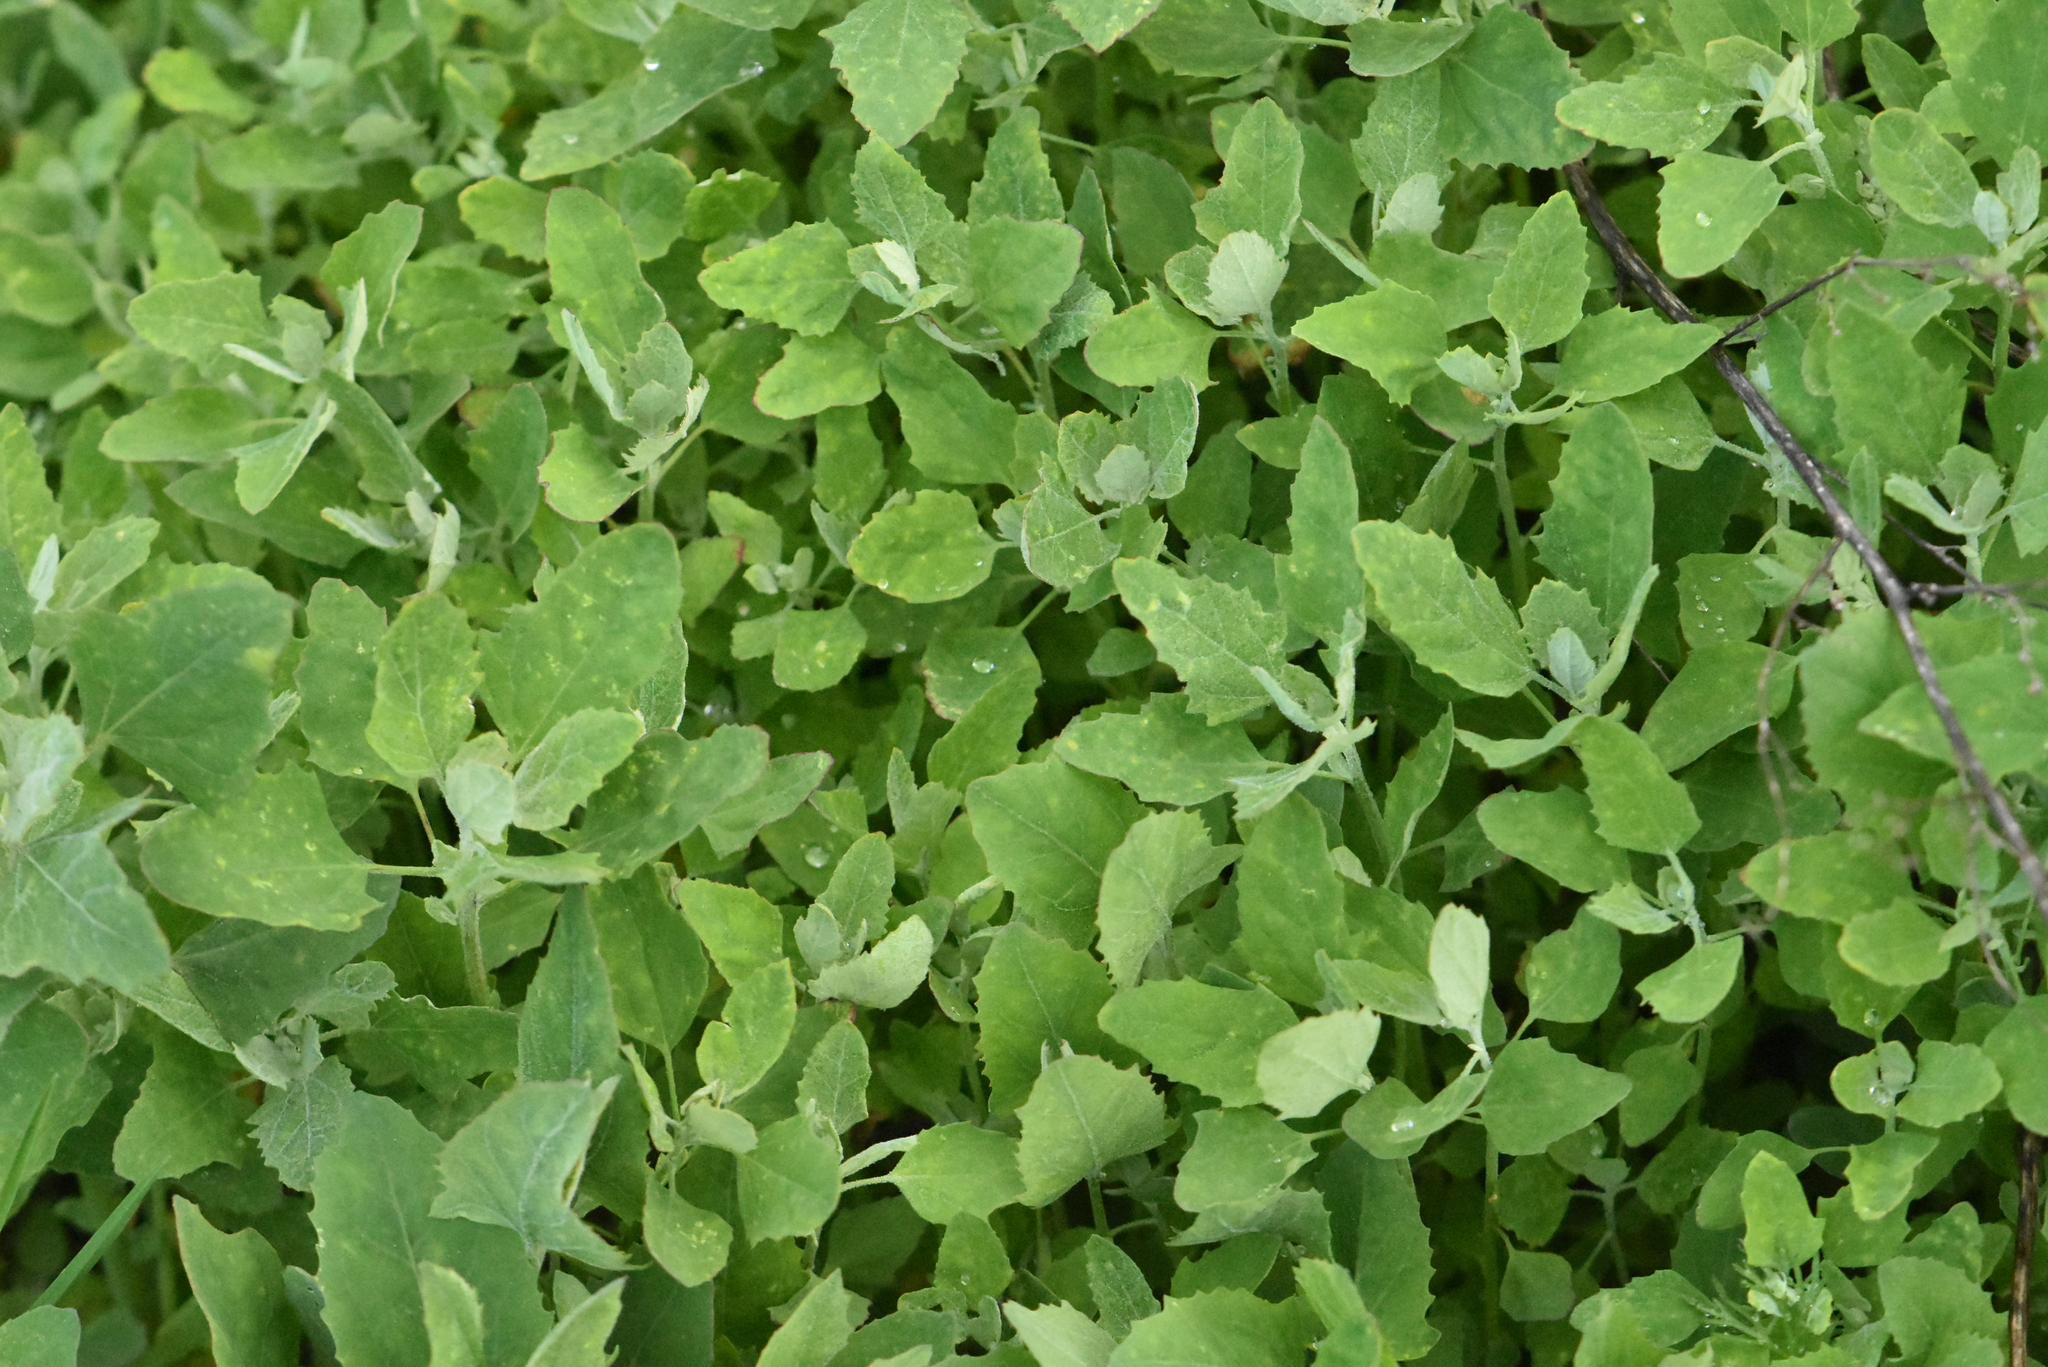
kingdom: Plantae
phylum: Tracheophyta
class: Magnoliopsida
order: Caryophyllales
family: Amaranthaceae
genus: Chenopodium
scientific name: Chenopodium album
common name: Fat-hen
